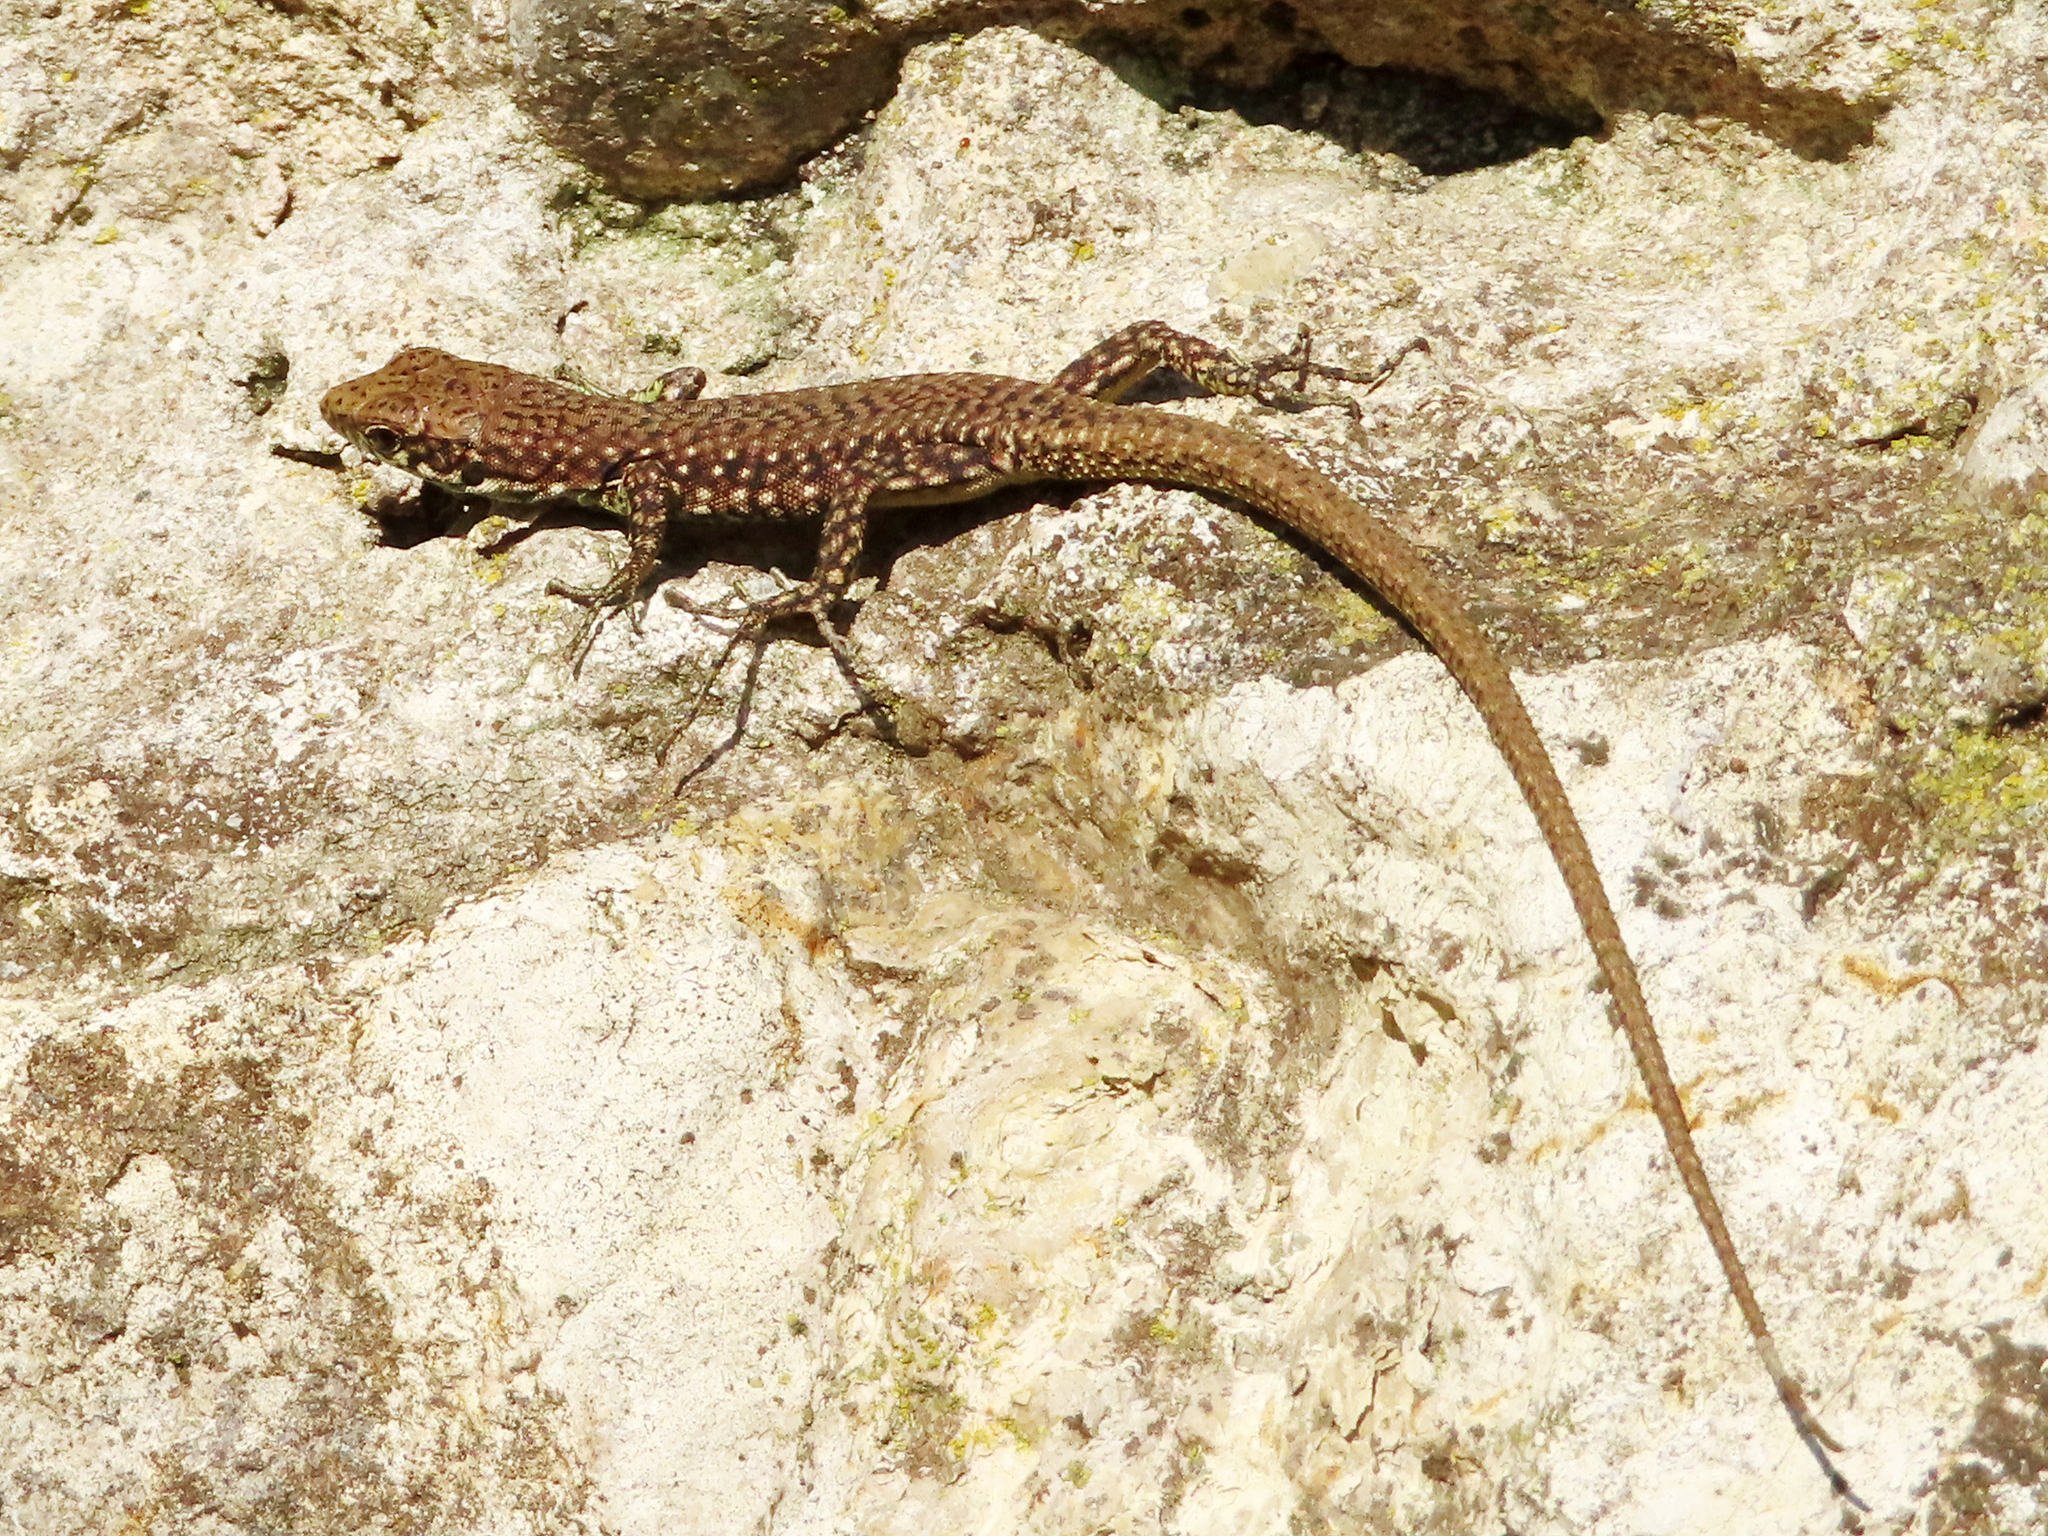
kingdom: Animalia
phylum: Chordata
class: Squamata
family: Lacertidae
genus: Darevskia
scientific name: Darevskia rudis
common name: Spiny-tailed lizard
